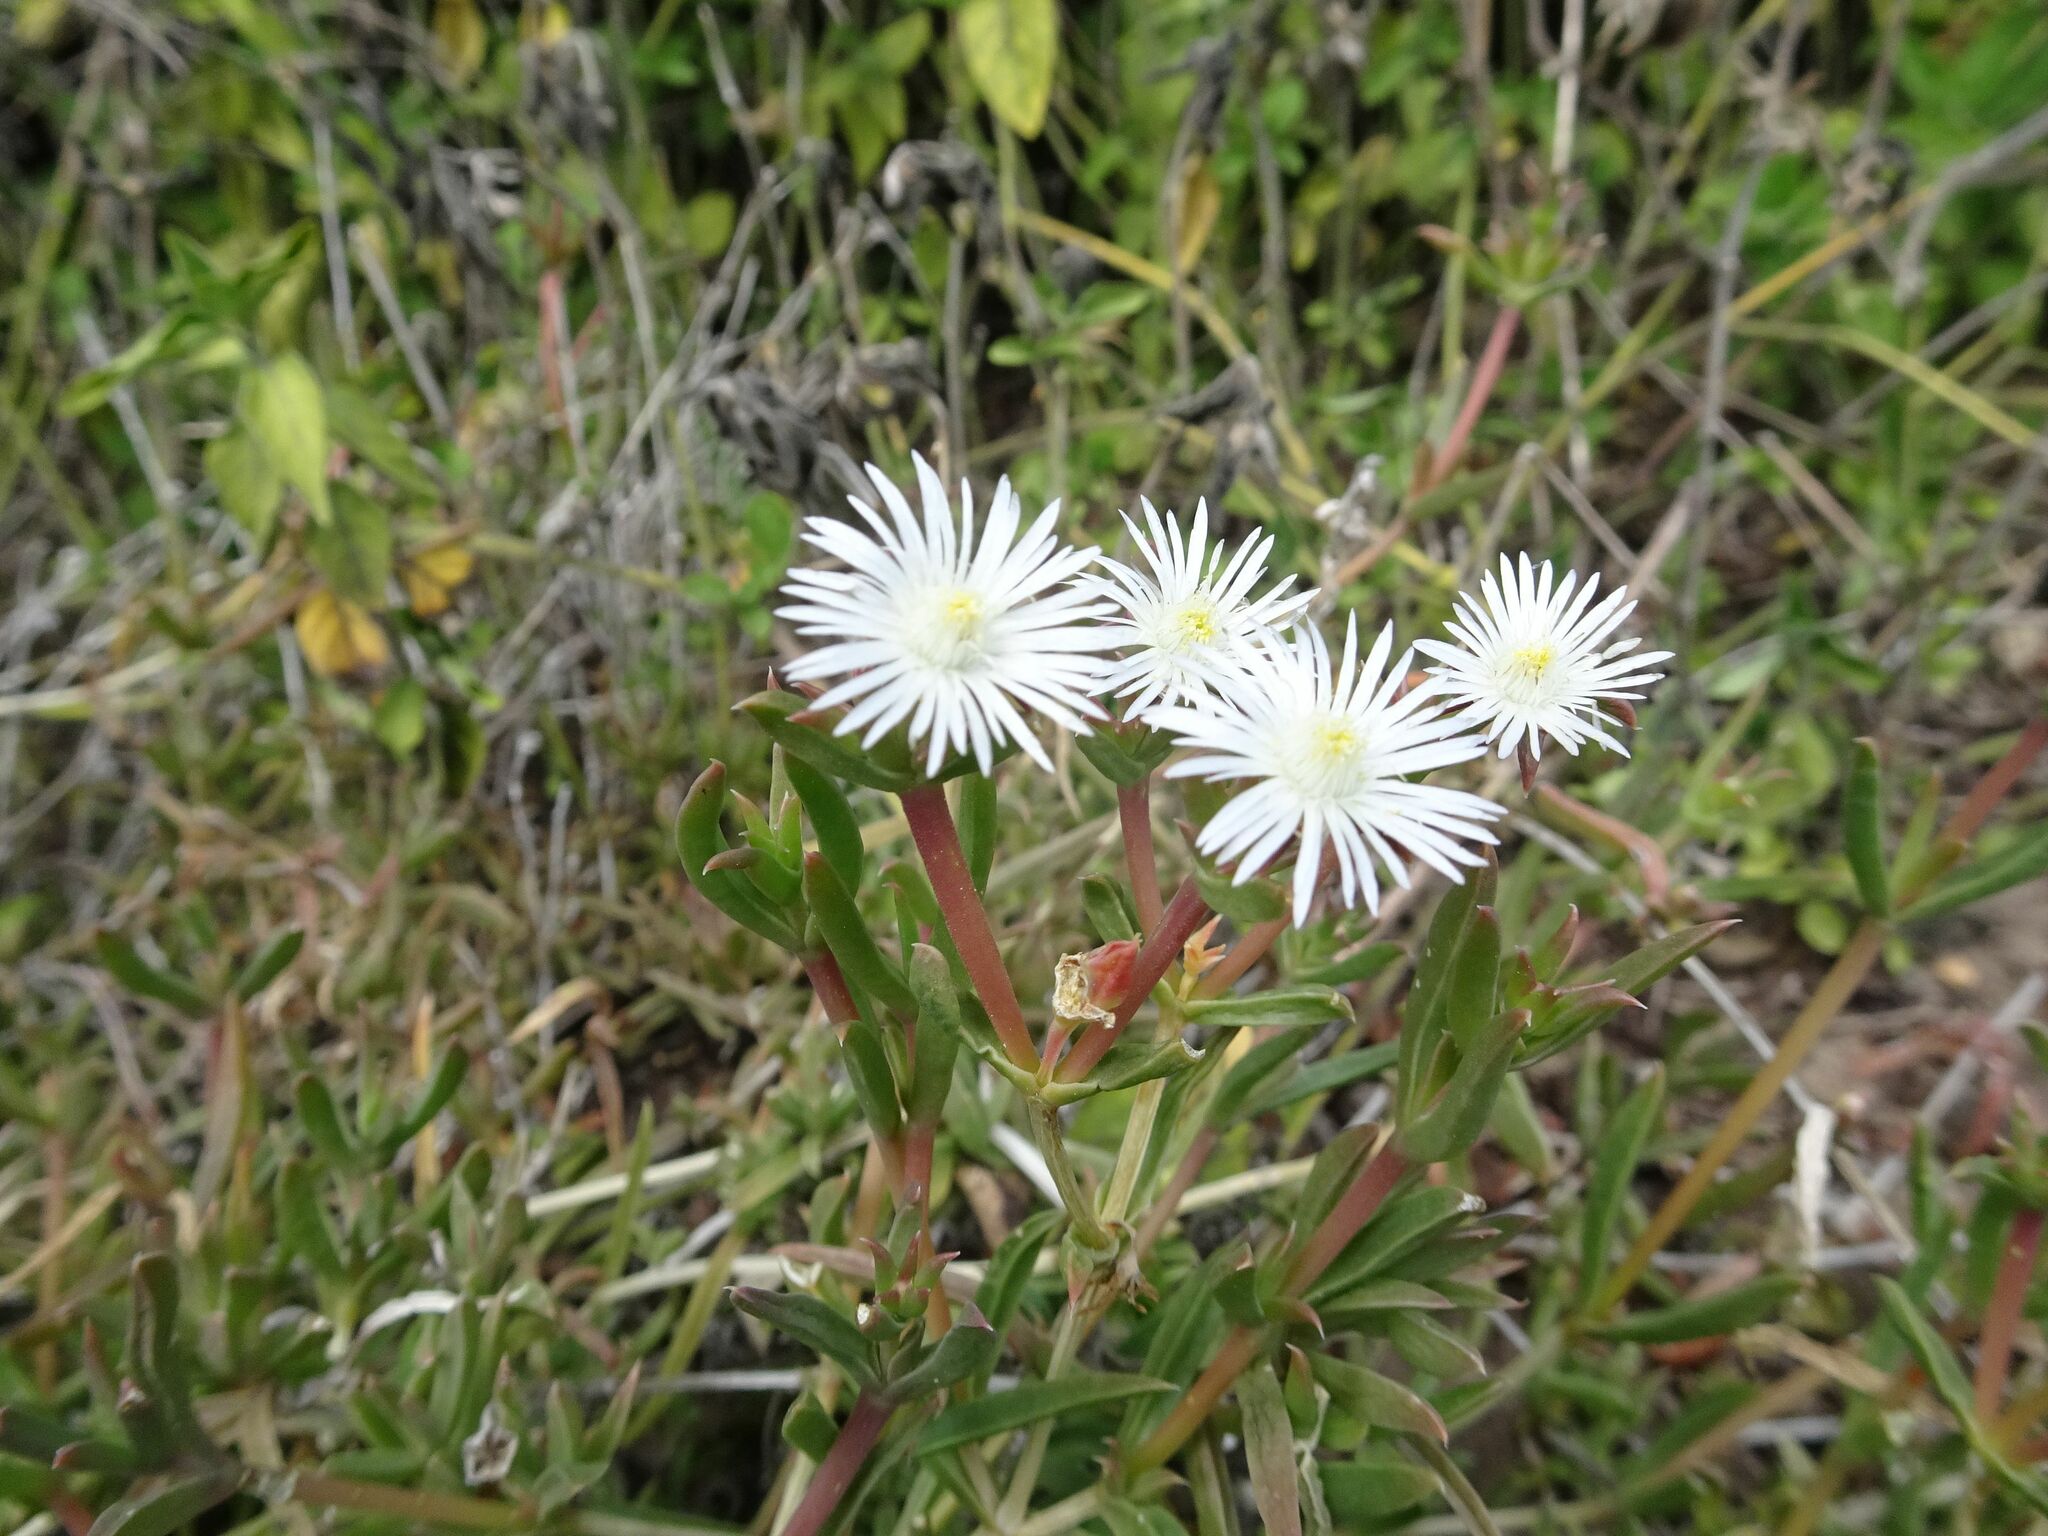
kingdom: Plantae
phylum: Tracheophyta
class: Magnoliopsida
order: Caryophyllales
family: Aizoaceae
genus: Delosperma
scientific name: Delosperma inconspicuum
